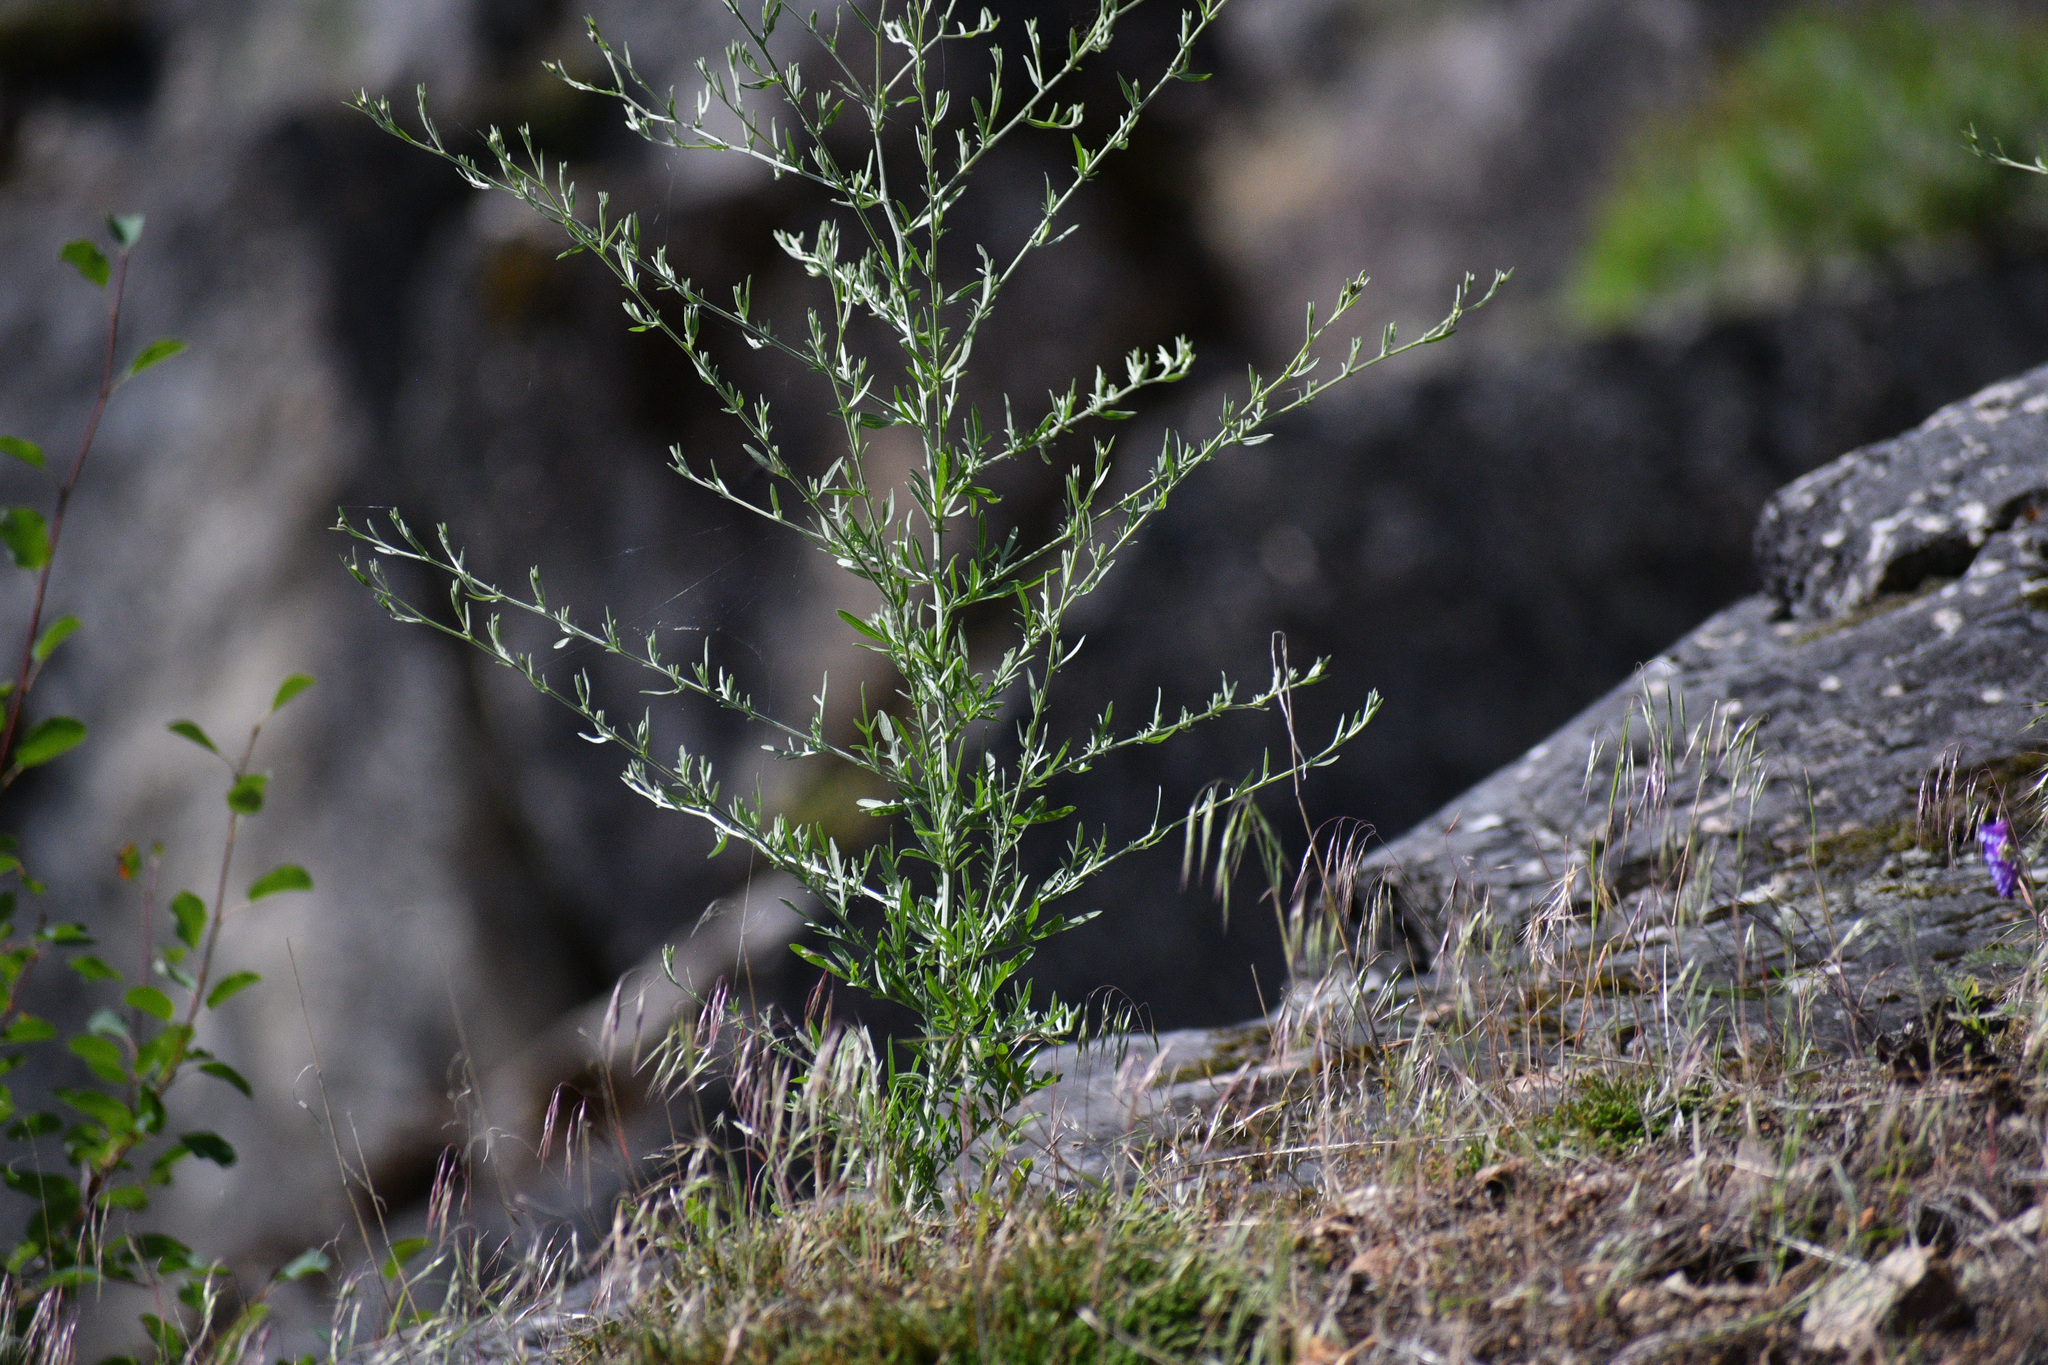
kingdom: Plantae
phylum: Tracheophyta
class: Magnoliopsida
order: Asterales
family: Asteraceae
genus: Centaurea
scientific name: Centaurea stoebe
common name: Spotted knapweed
